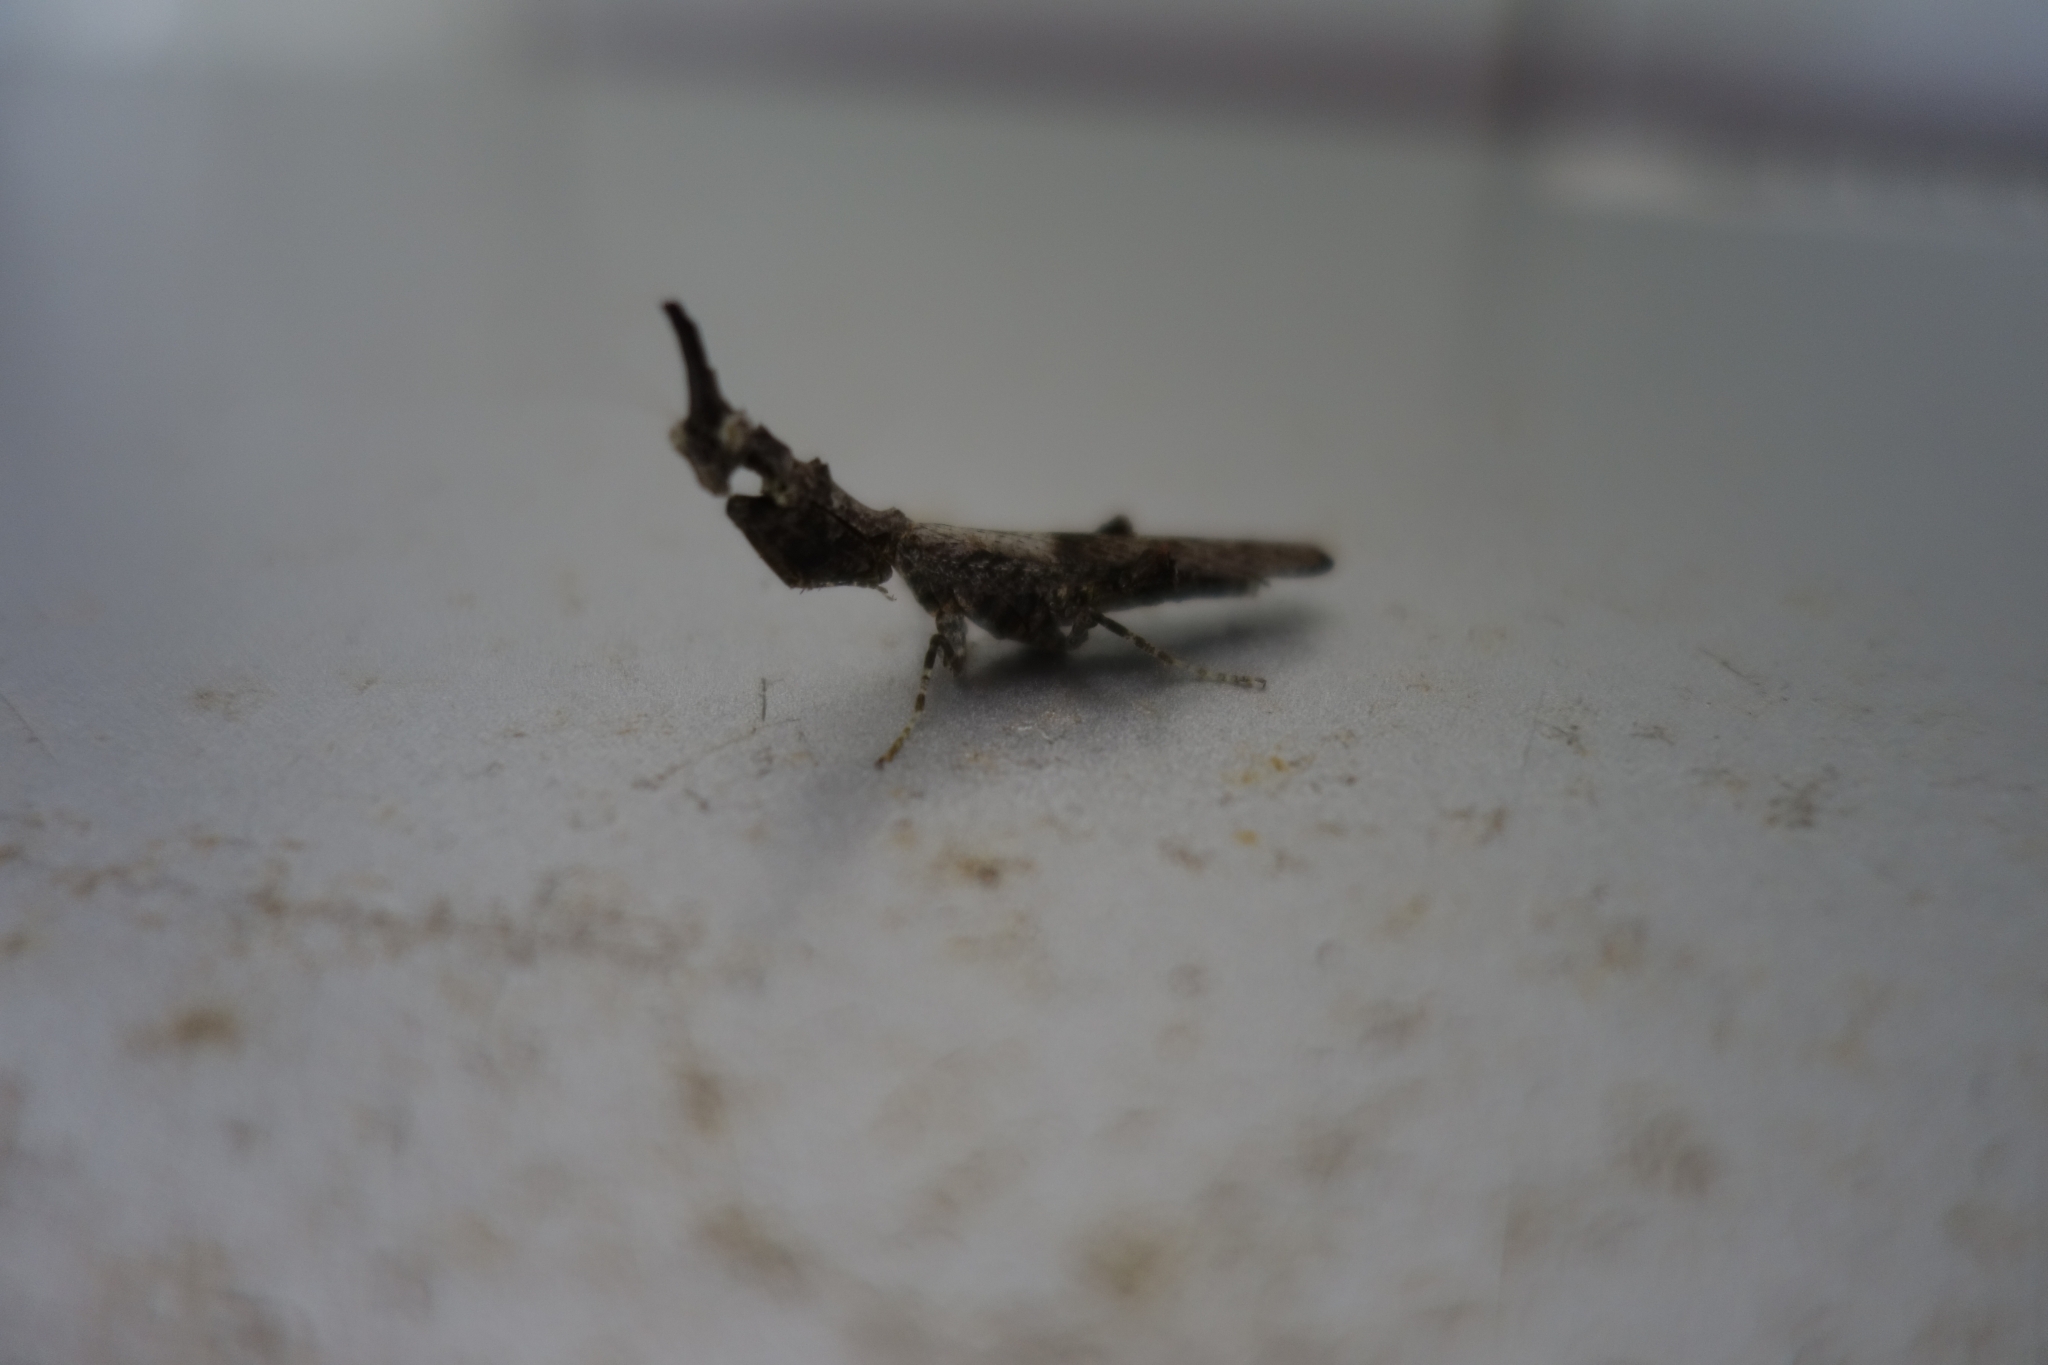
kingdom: Animalia
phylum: Arthropoda
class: Insecta
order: Mantodea
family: Hymenopodidae
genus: Oxypiloidea
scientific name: Oxypiloidea tridens
